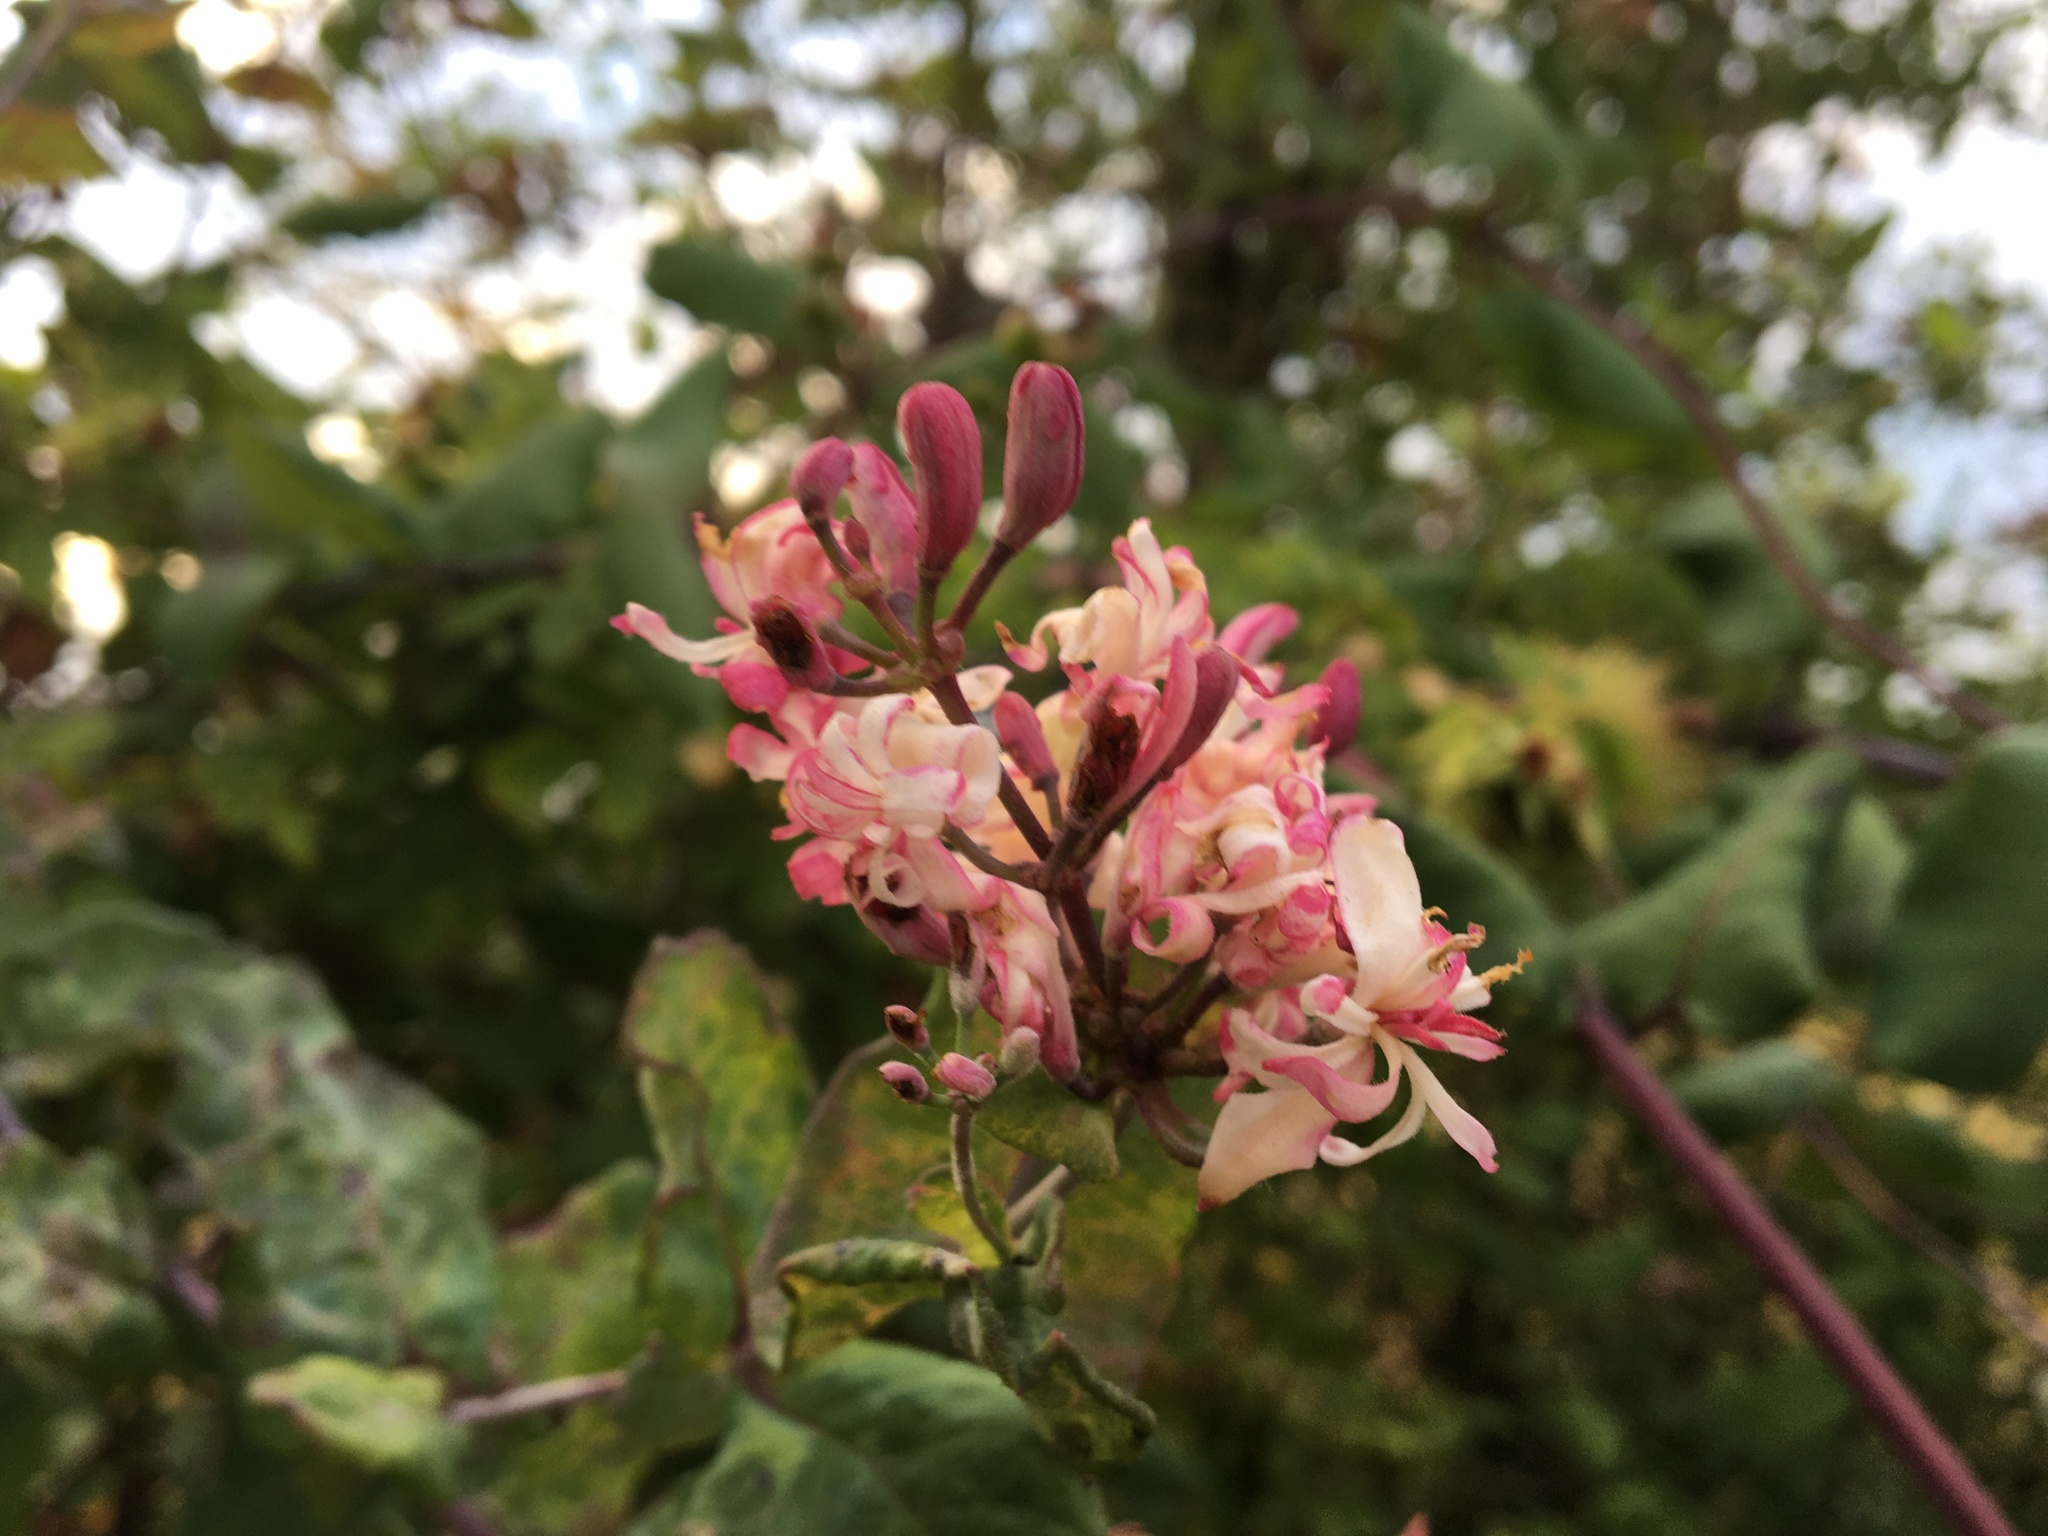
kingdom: Plantae
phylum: Tracheophyta
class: Magnoliopsida
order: Dipsacales
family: Caprifoliaceae
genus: Lonicera
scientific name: Lonicera hispidula
